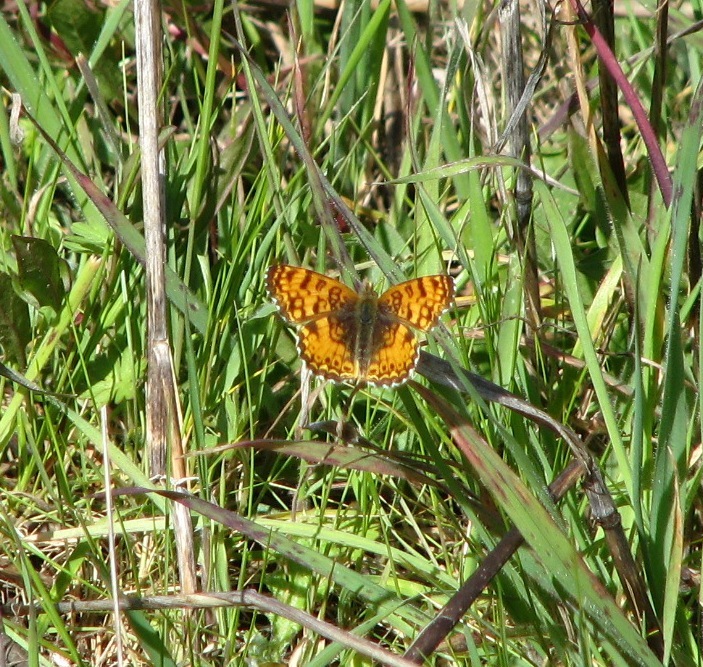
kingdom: Animalia
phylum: Arthropoda
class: Insecta
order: Lepidoptera
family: Nymphalidae
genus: Eresia
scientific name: Eresia aveyrona
